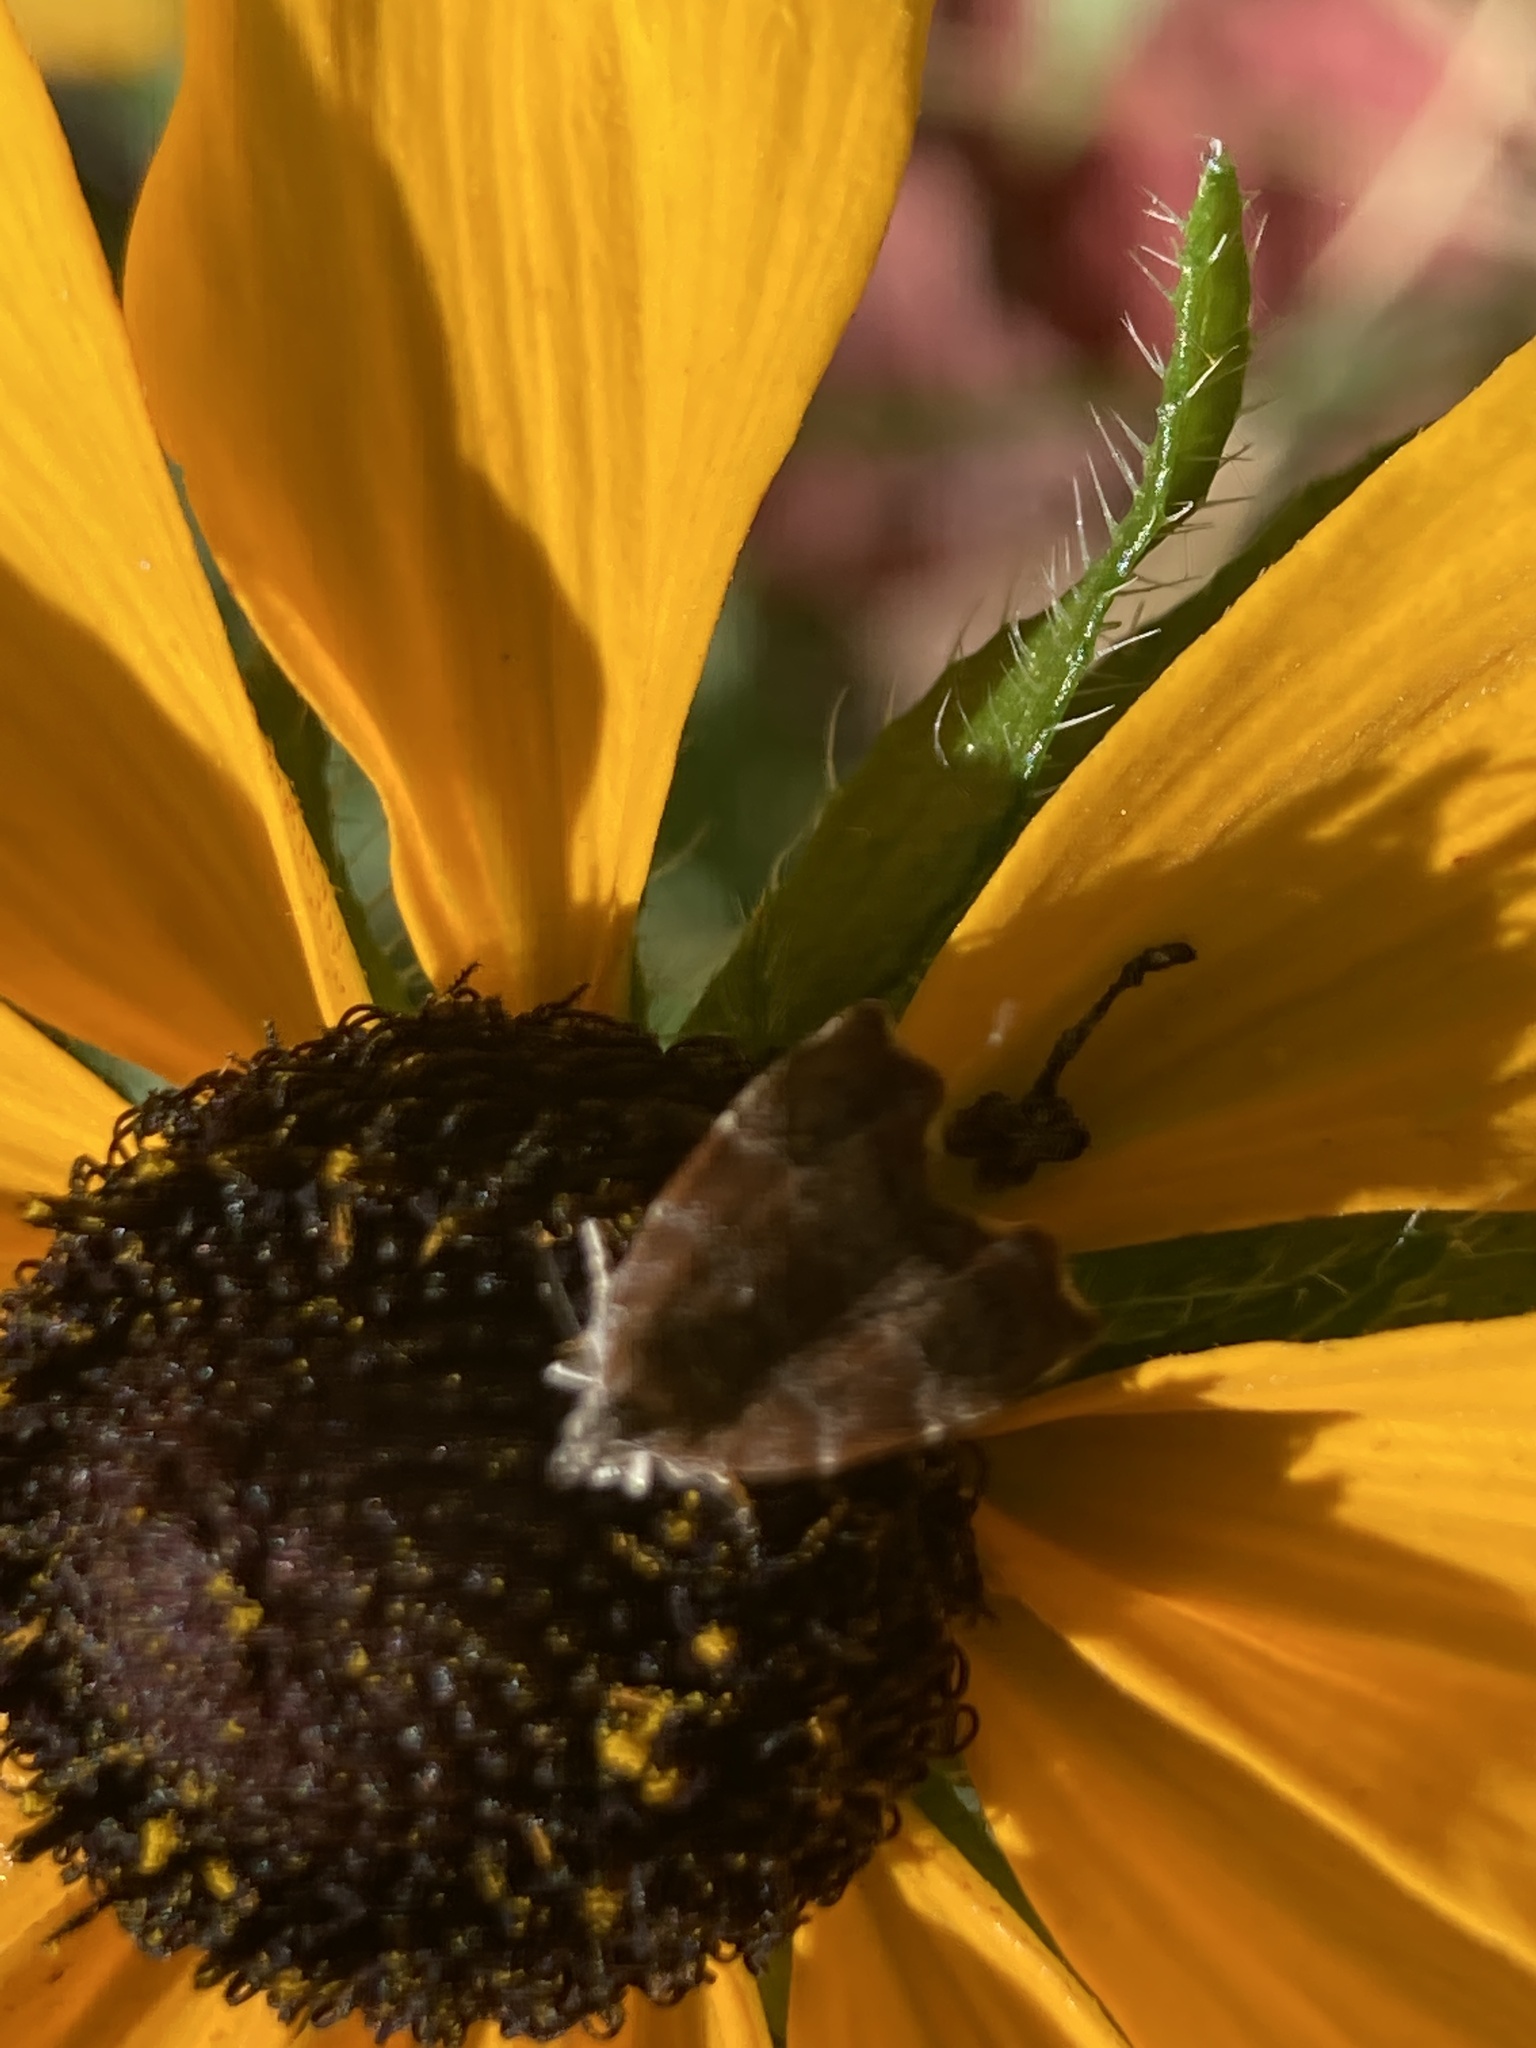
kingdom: Animalia
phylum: Arthropoda
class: Insecta
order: Lepidoptera
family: Choreutidae
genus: Anthophila
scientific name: Anthophila nemorana
